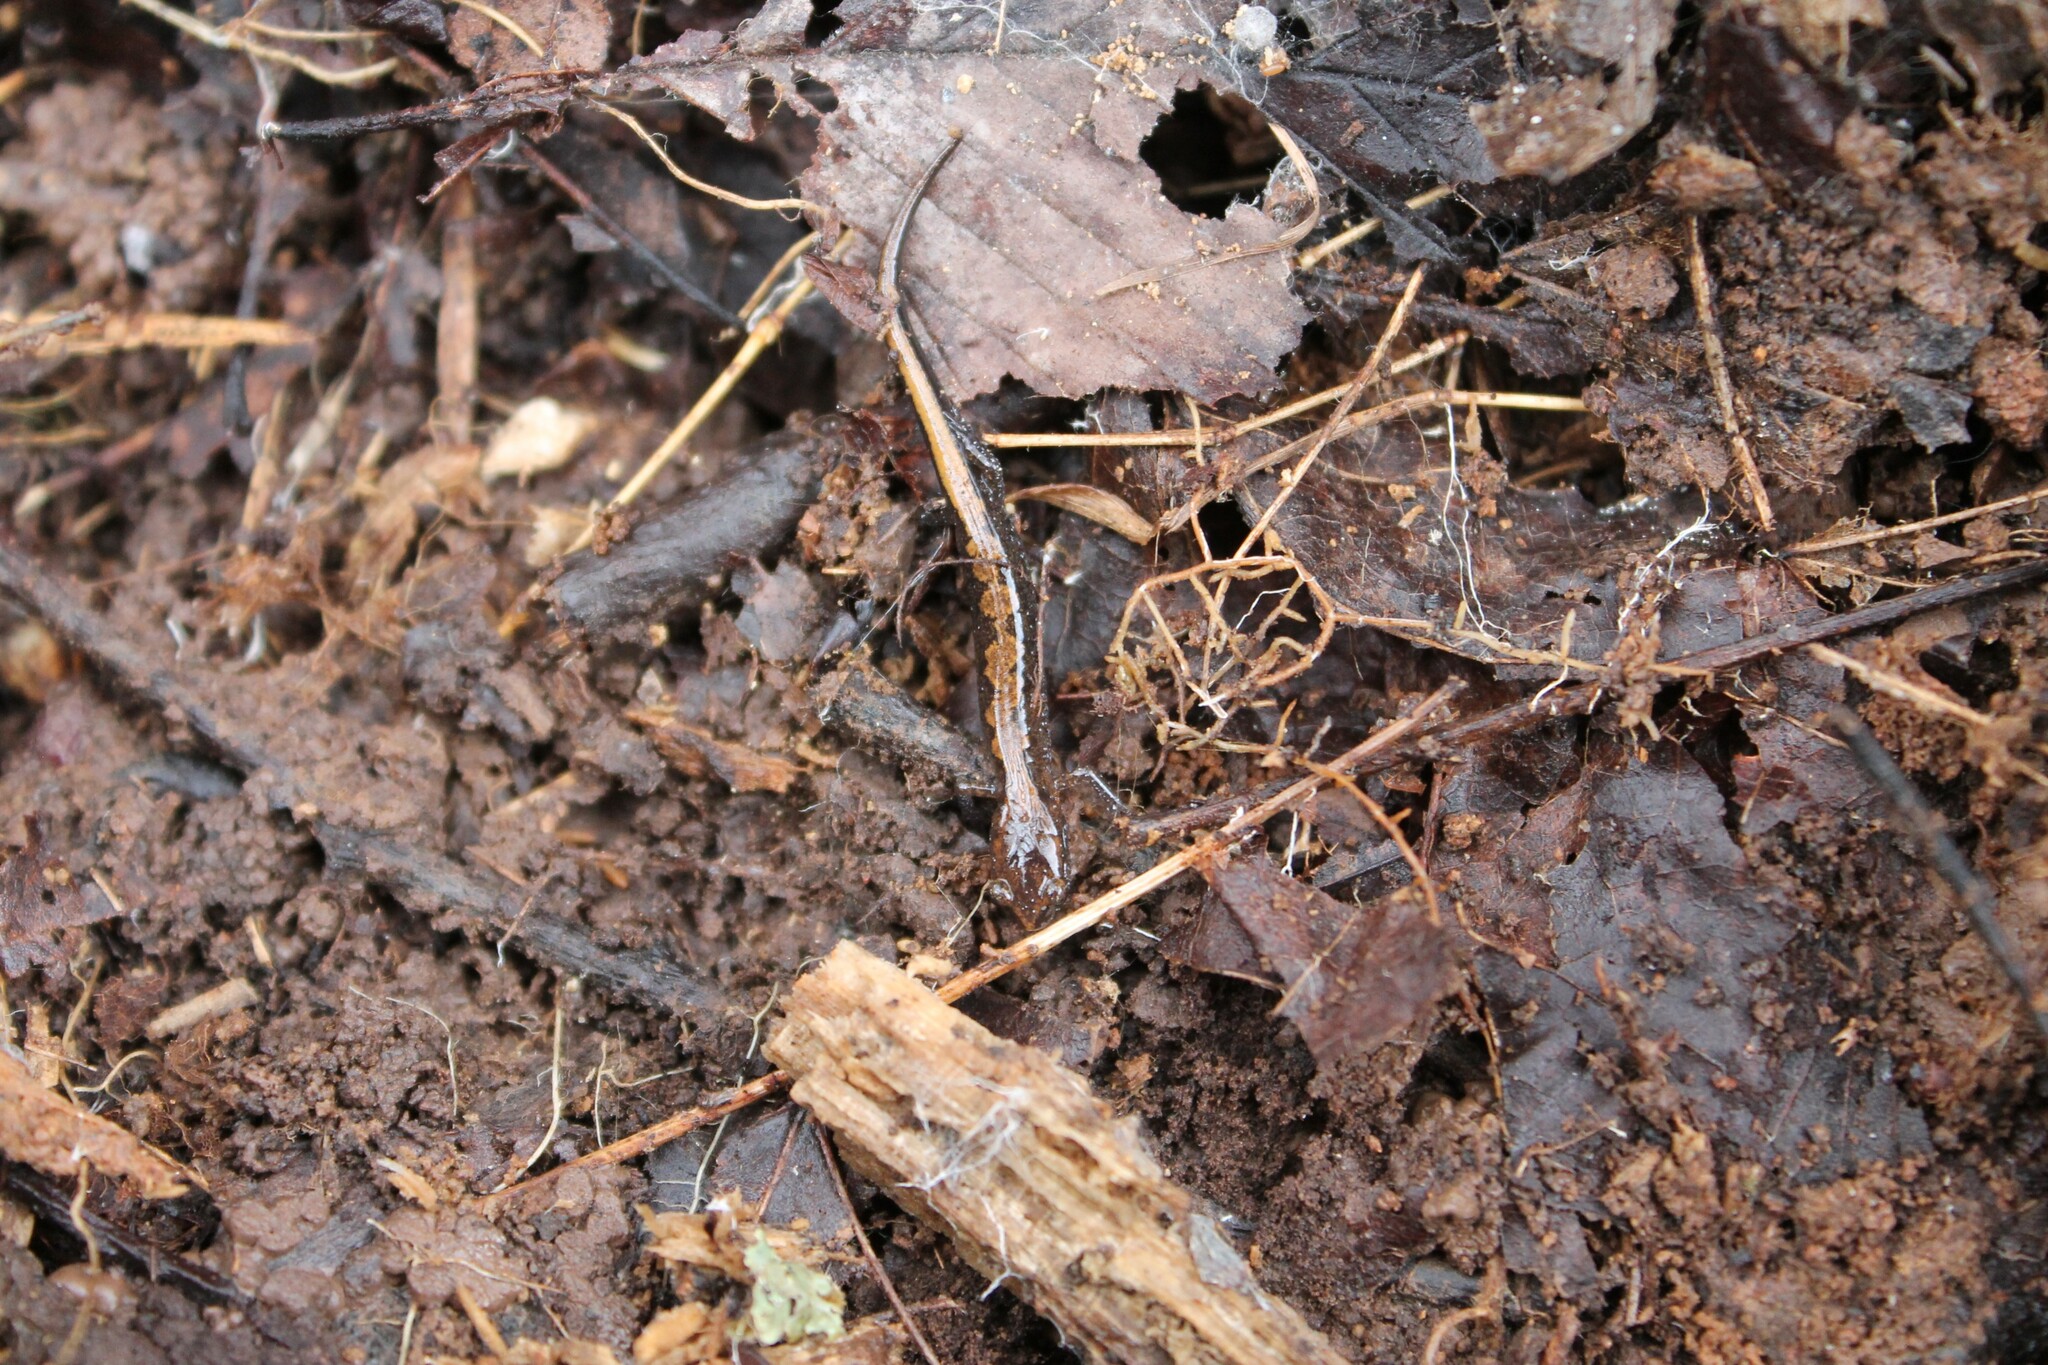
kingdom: Animalia
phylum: Chordata
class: Amphibia
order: Caudata
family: Plethodontidae
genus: Plethodon
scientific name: Plethodon dorsalis
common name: Northern zigzag salamander
